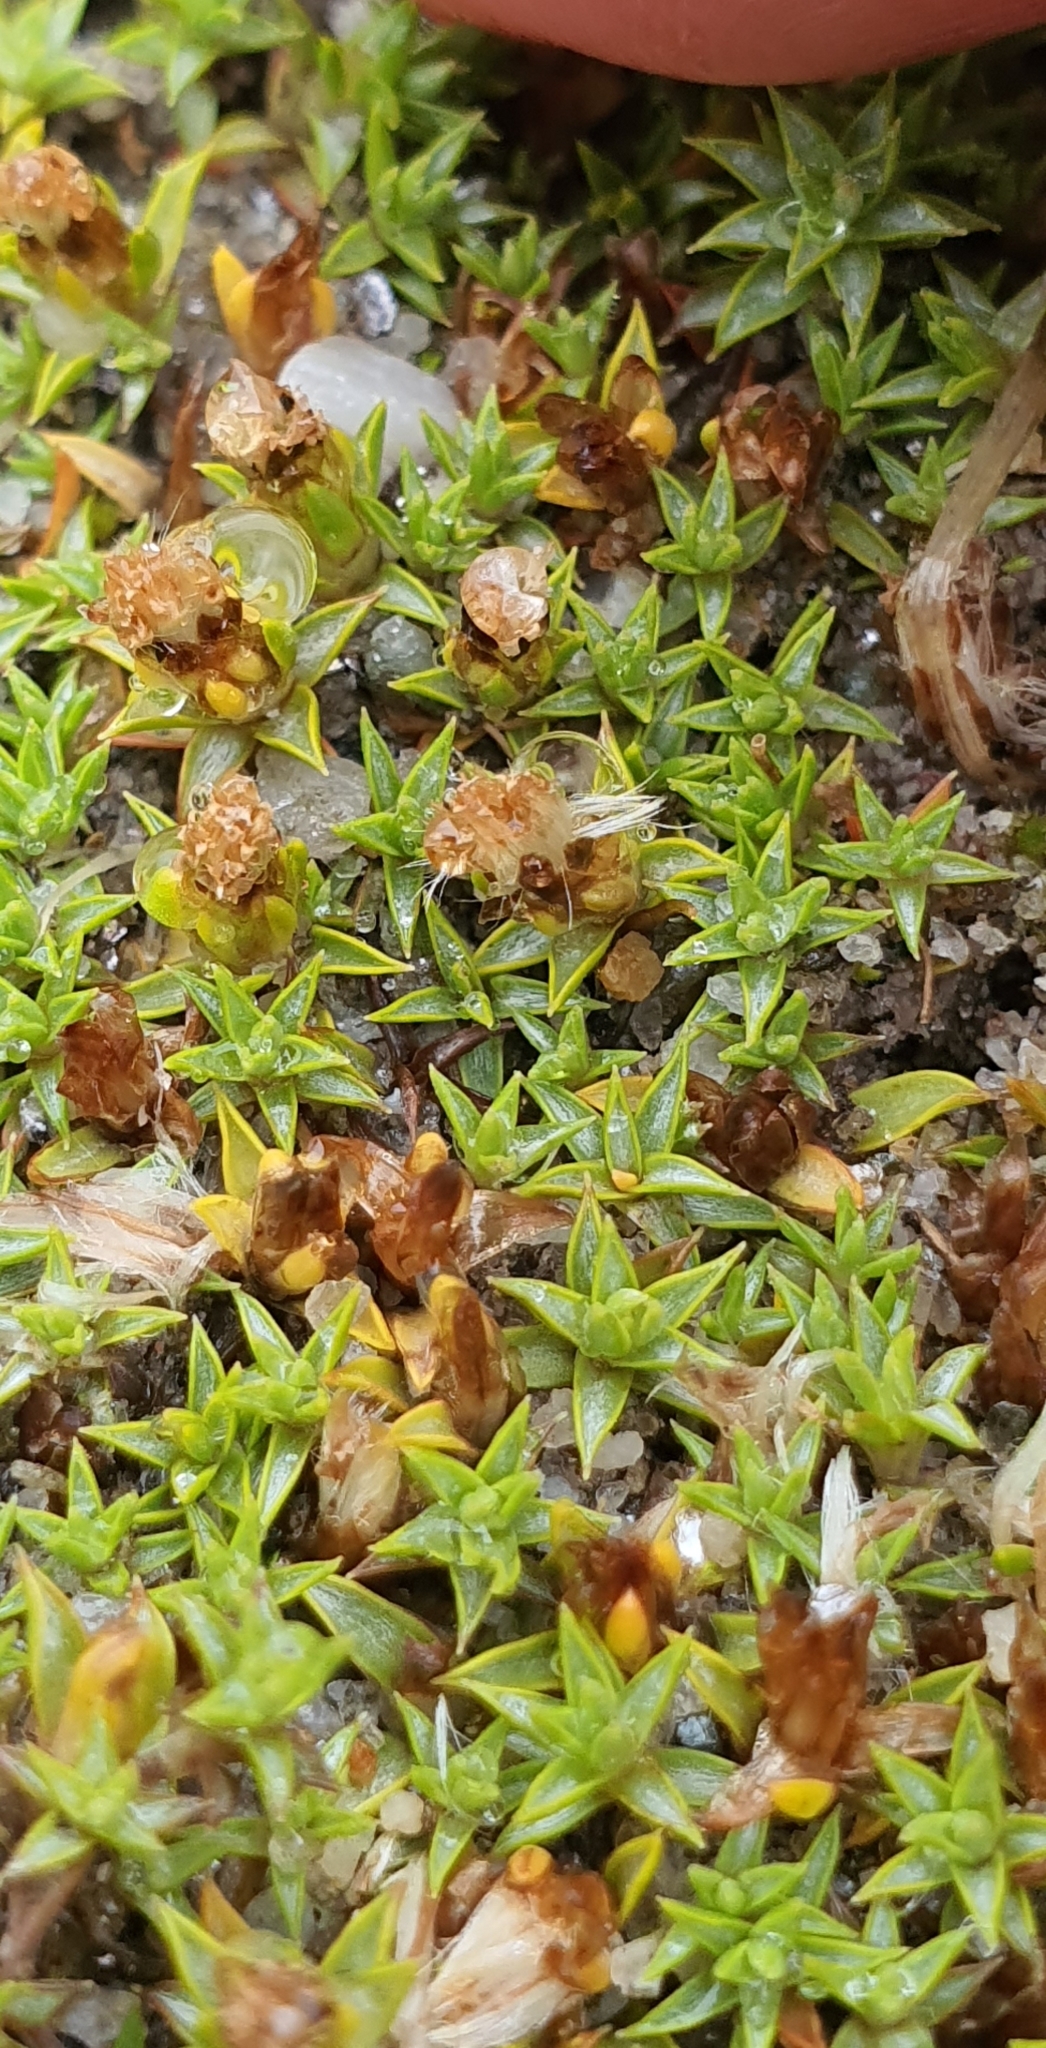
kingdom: Plantae
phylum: Tracheophyta
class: Magnoliopsida
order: Asterales
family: Asteraceae
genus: Raoulia
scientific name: Raoulia tenuicaulis
